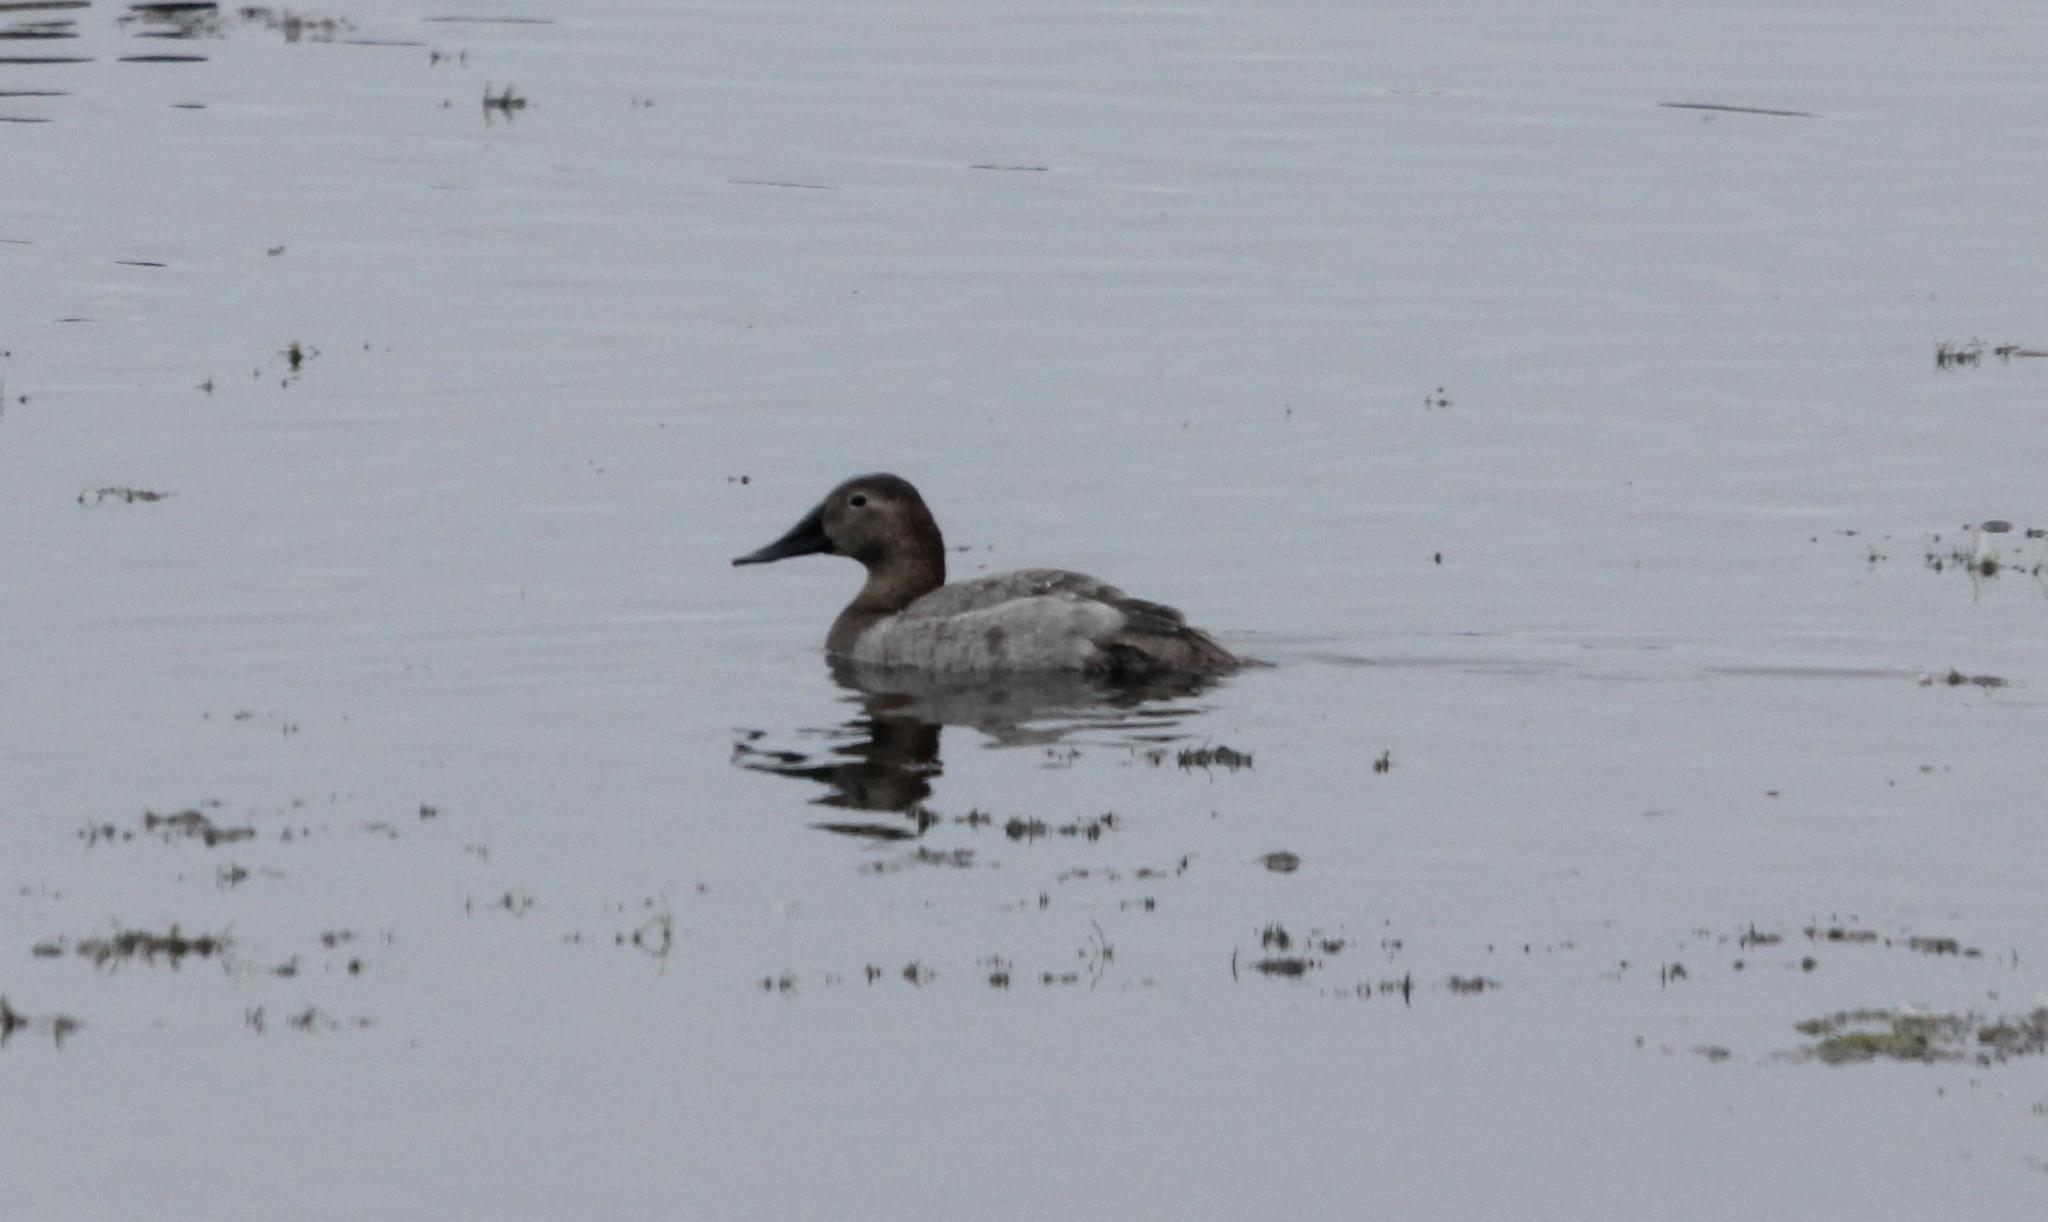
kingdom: Animalia
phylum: Chordata
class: Aves
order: Anseriformes
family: Anatidae
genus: Aythya
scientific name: Aythya valisineria
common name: Canvasback
